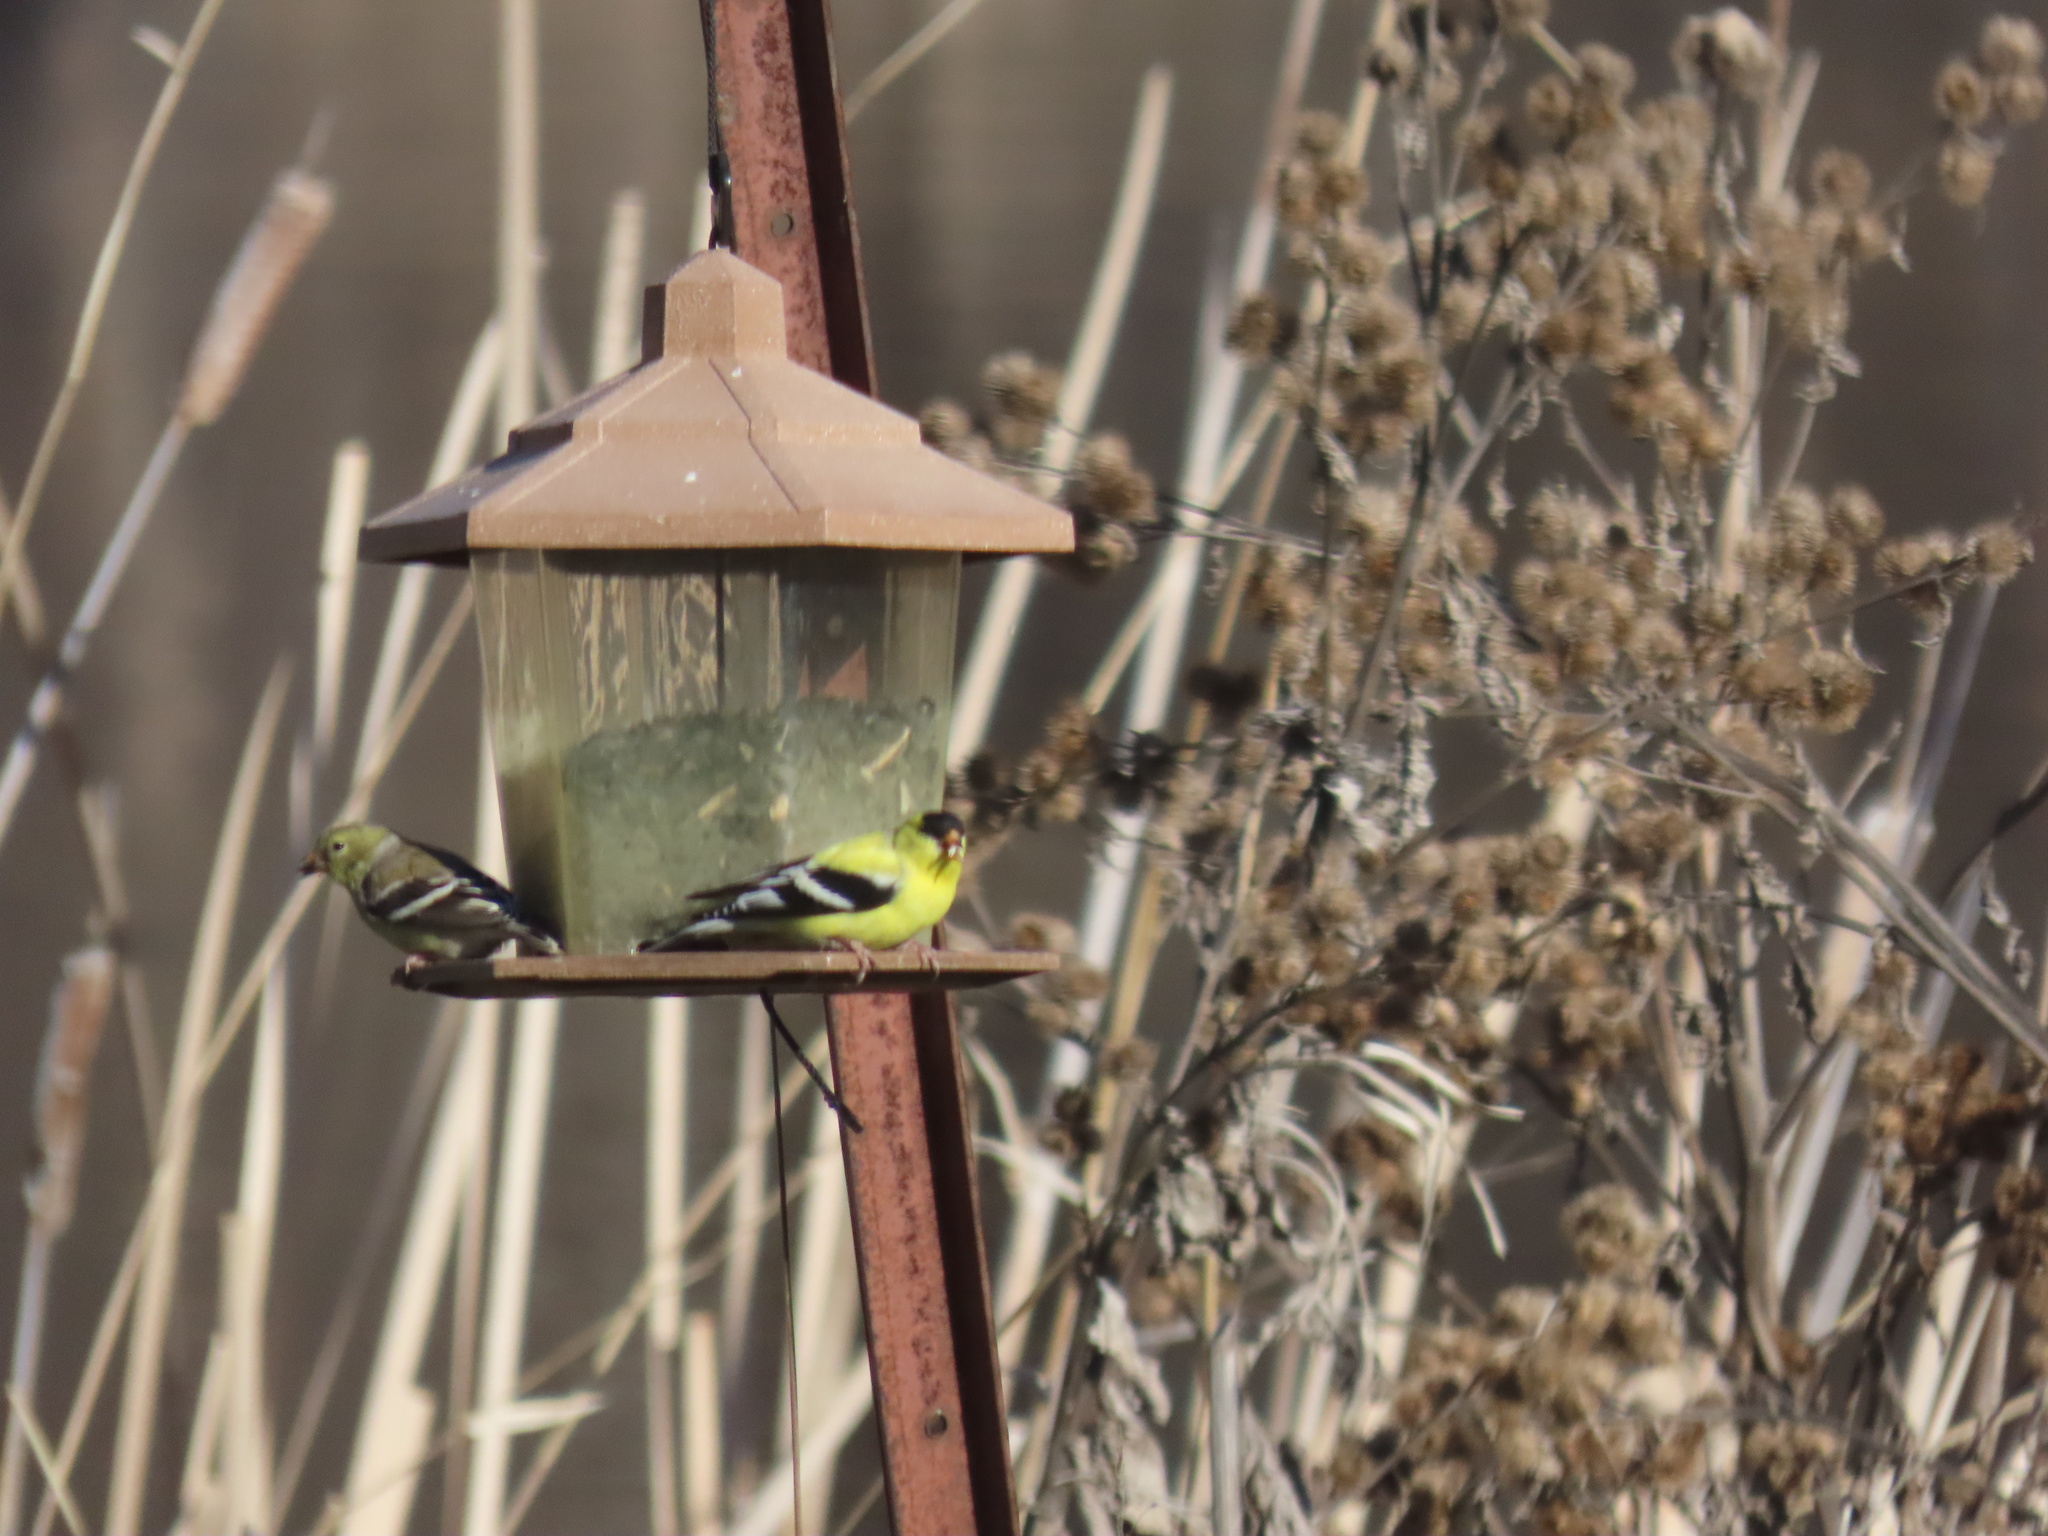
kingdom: Animalia
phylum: Chordata
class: Aves
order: Passeriformes
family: Fringillidae
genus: Spinus
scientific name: Spinus tristis
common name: American goldfinch
